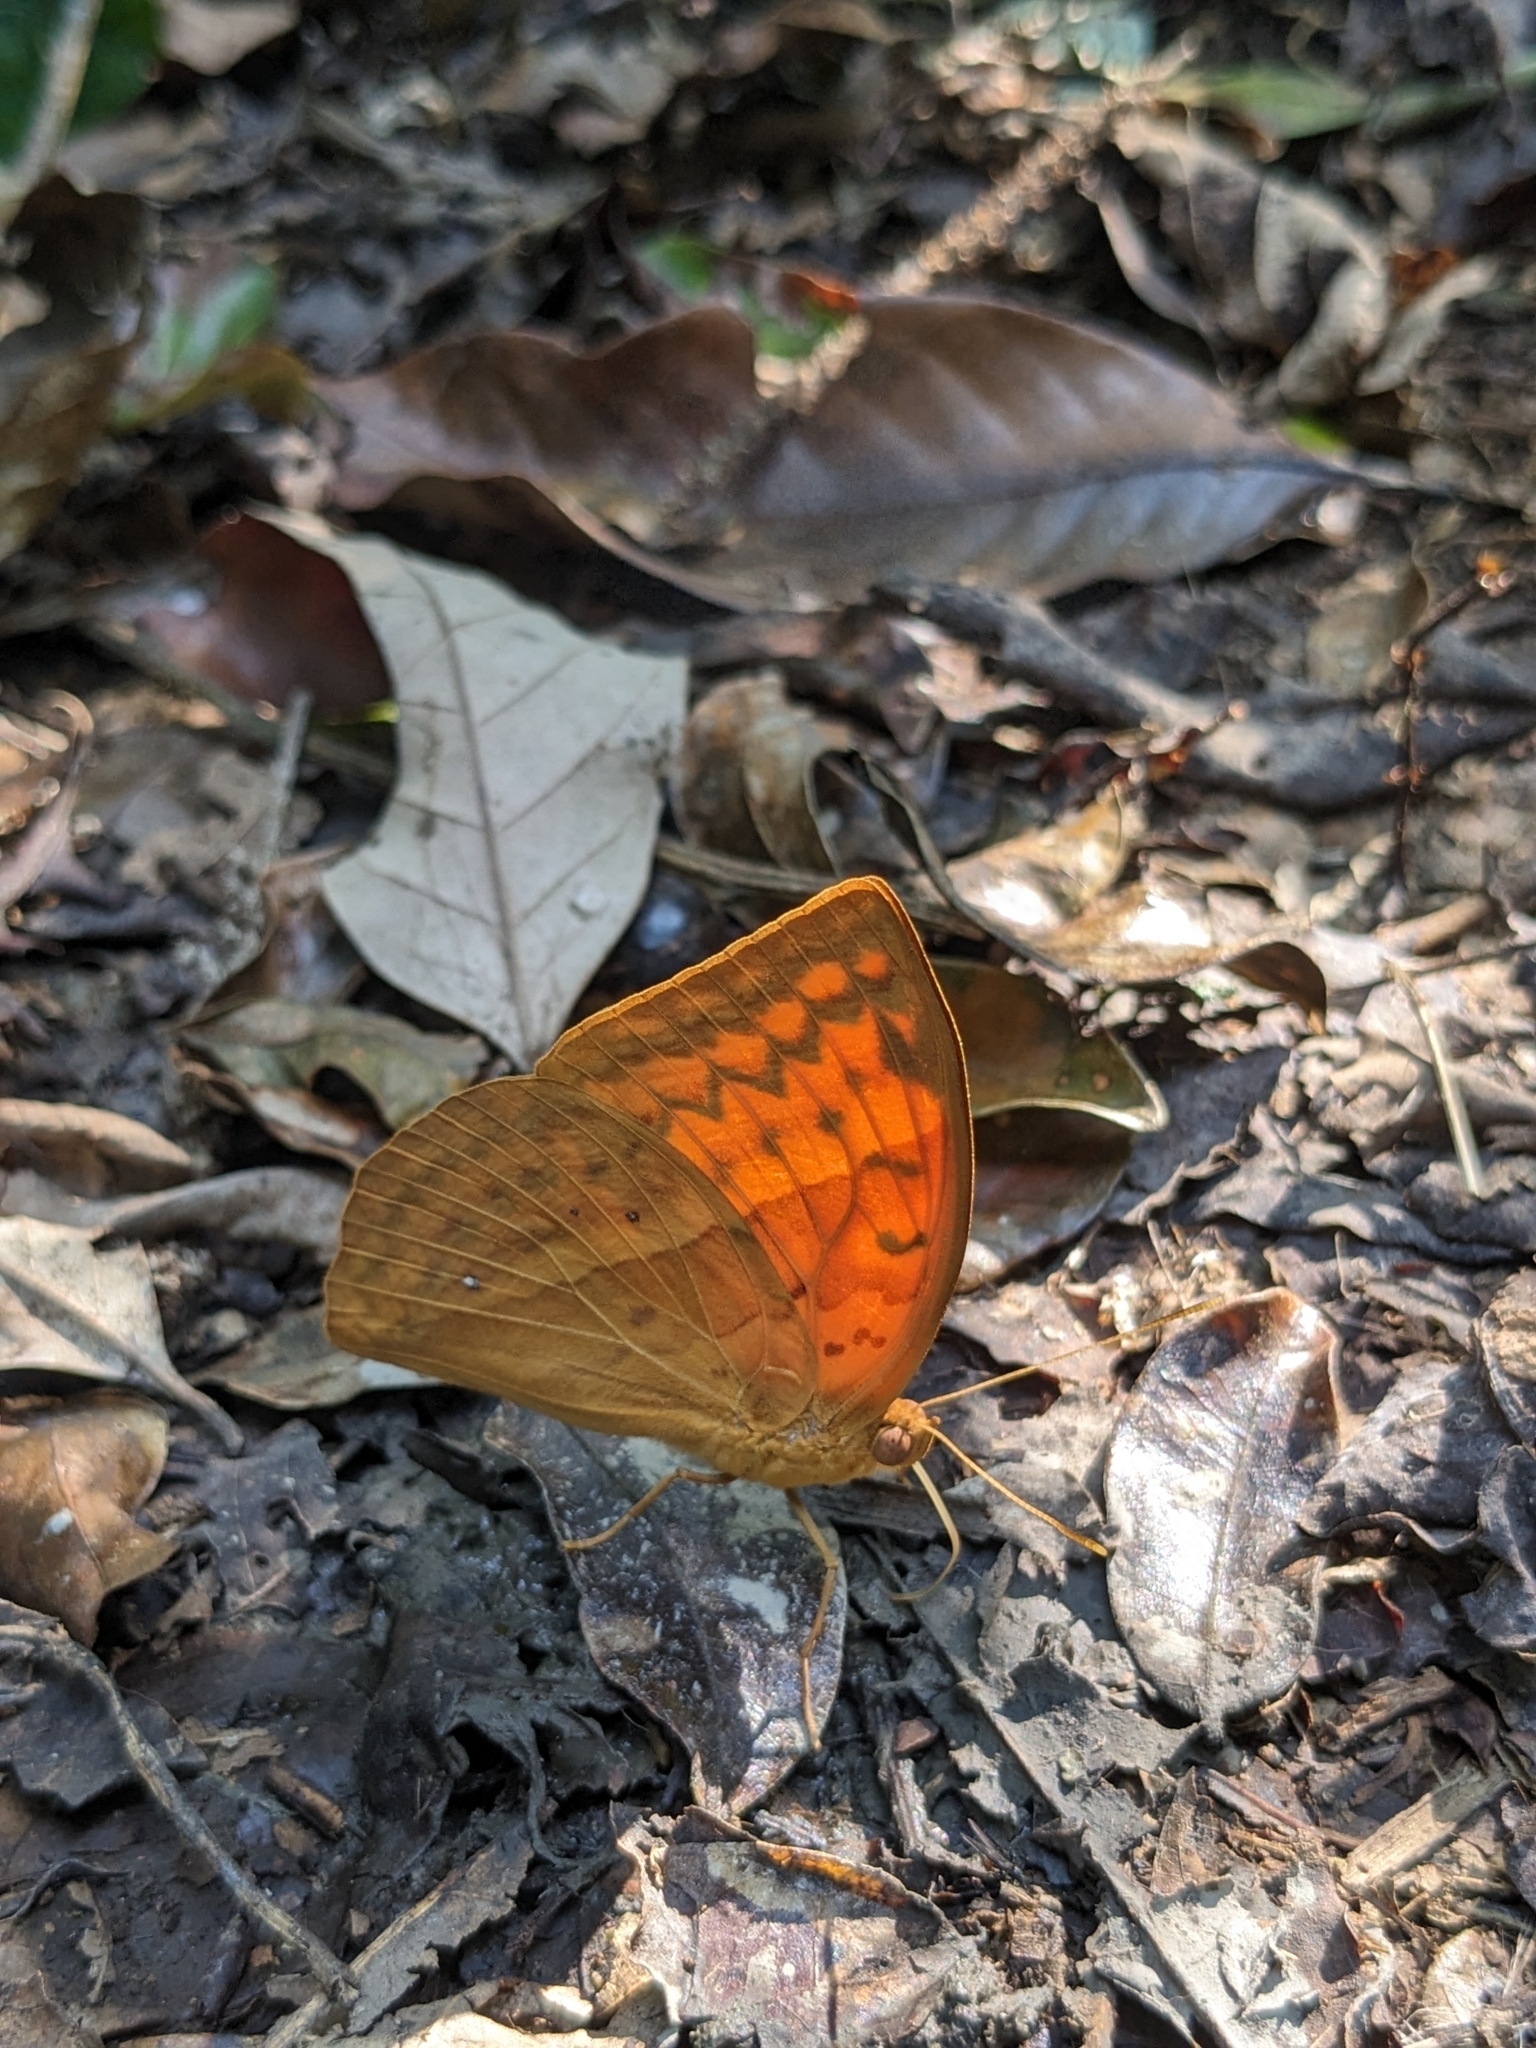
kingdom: Animalia
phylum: Arthropoda
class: Insecta
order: Lepidoptera
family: Nymphalidae
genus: Enispe
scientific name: Enispe euthymnius
